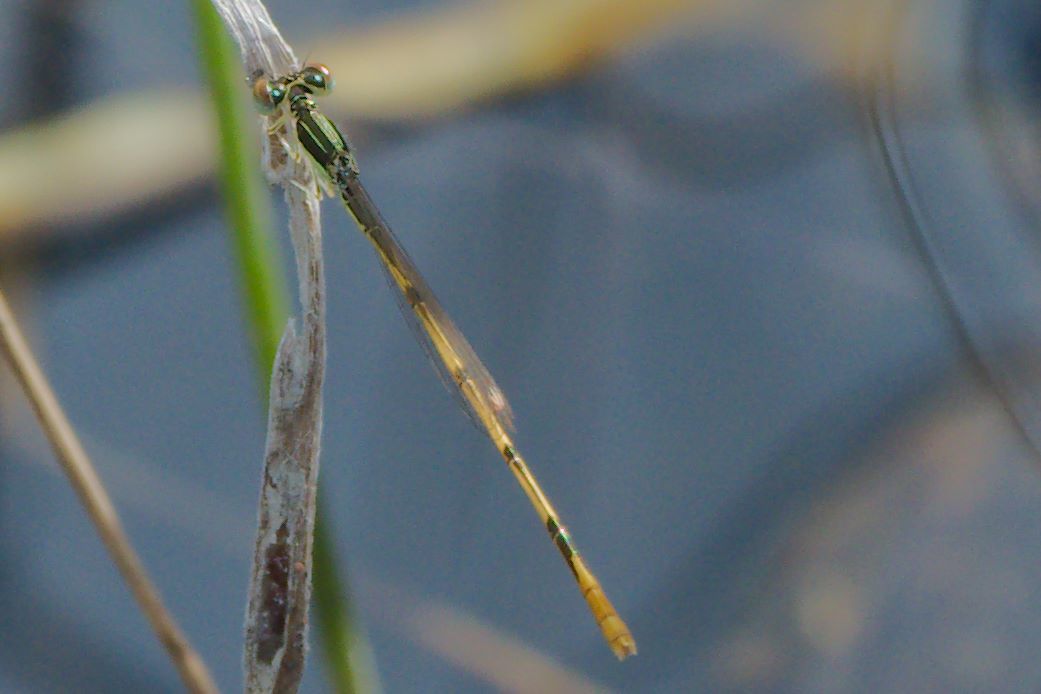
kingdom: Animalia
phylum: Arthropoda
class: Insecta
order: Odonata
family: Coenagrionidae
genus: Ischnura
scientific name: Ischnura hastata
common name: Citrine forktail
